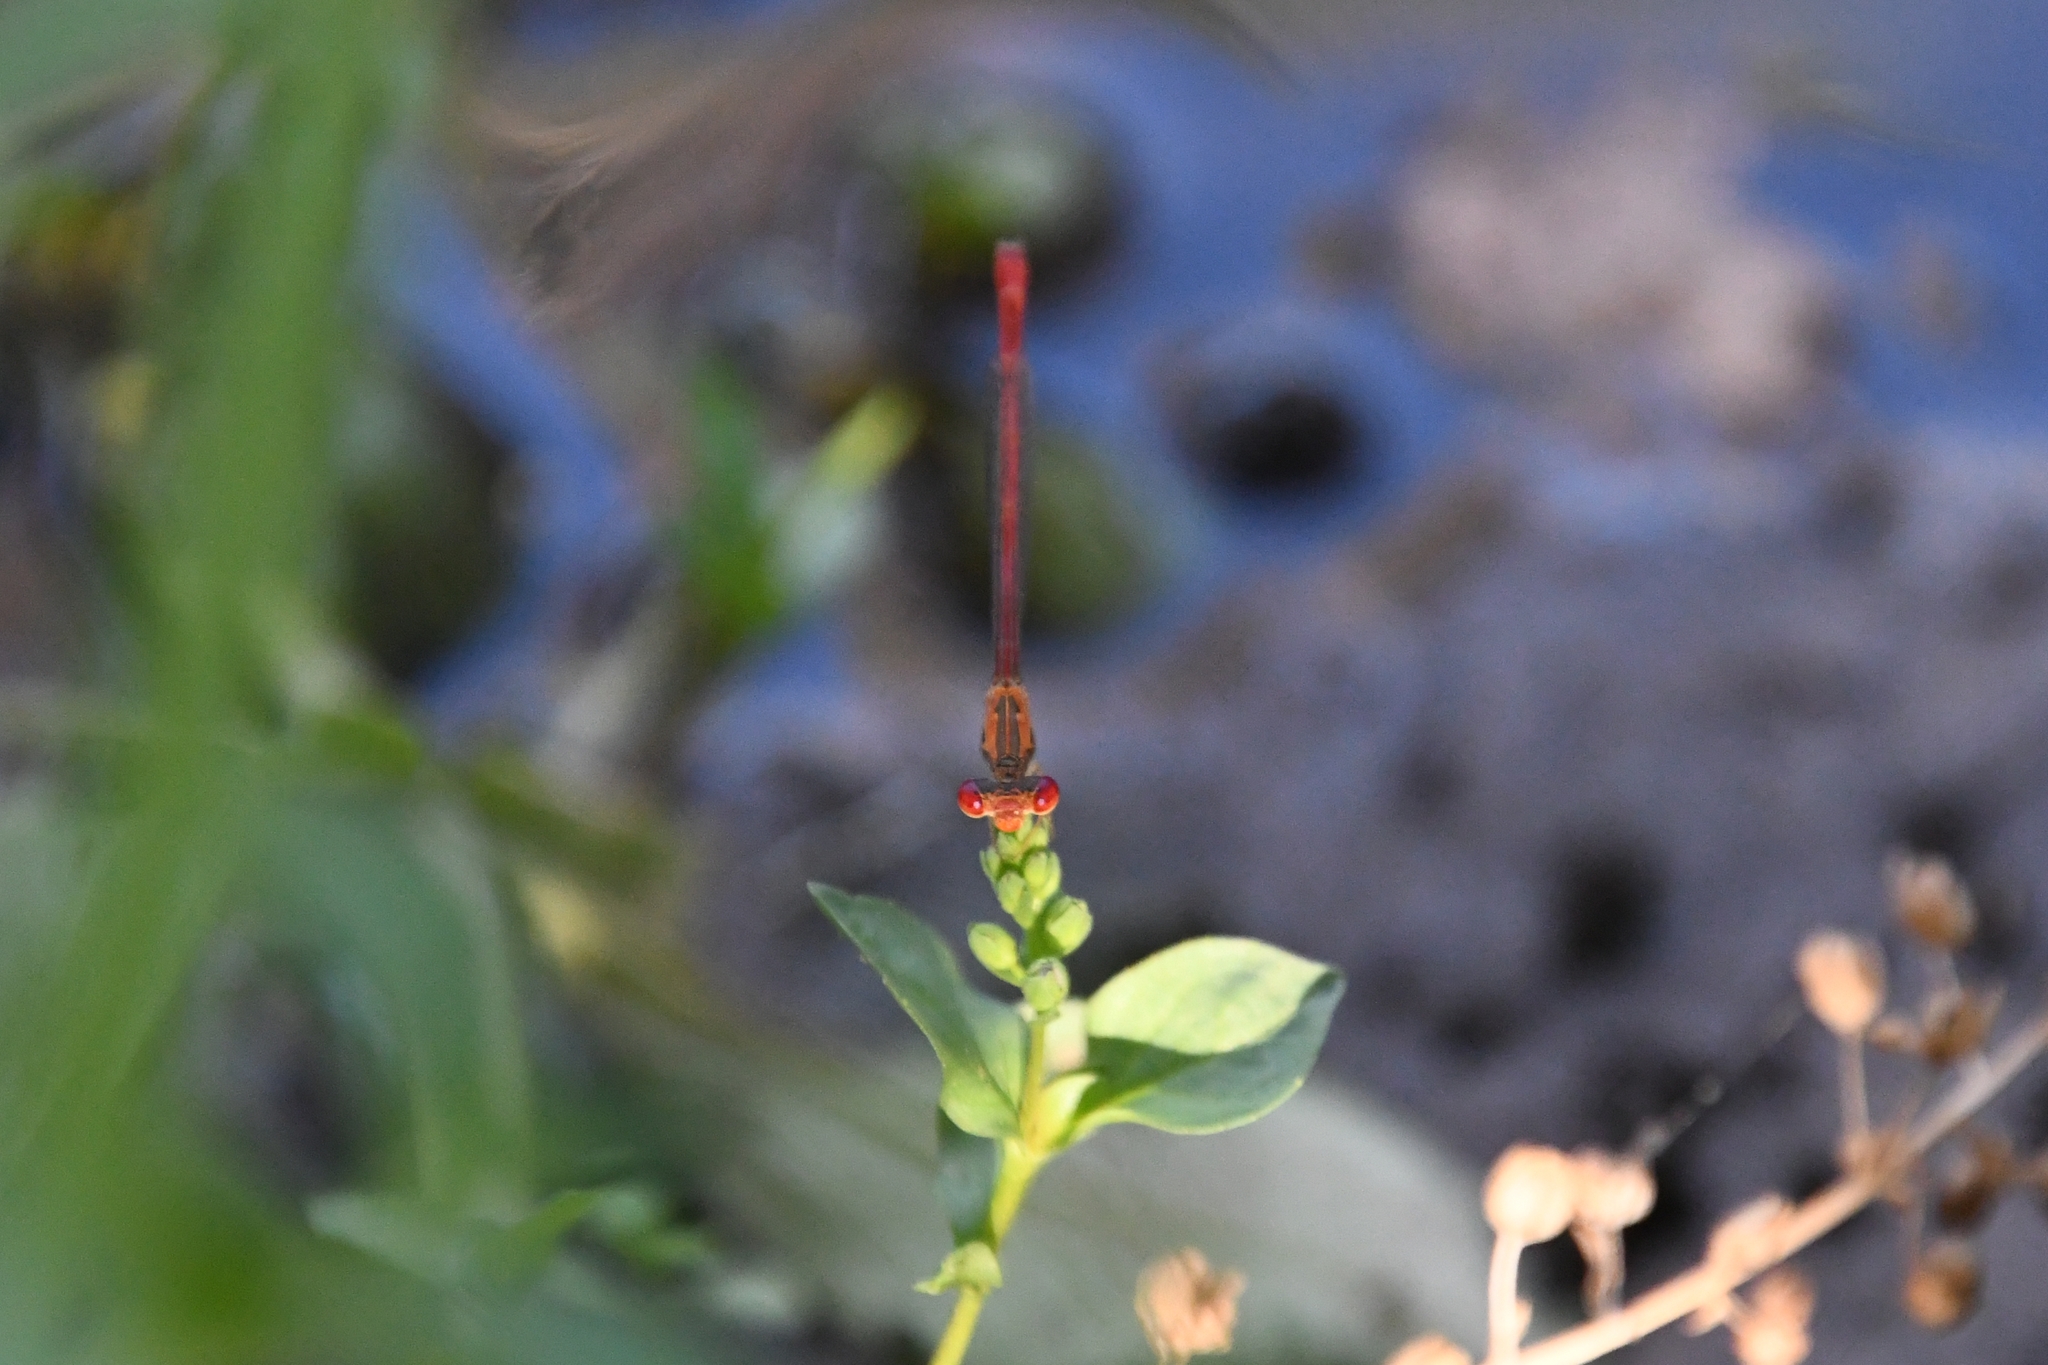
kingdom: Animalia
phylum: Arthropoda
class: Insecta
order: Odonata
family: Coenagrionidae
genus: Telebasis
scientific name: Telebasis salva
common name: Desert firetail
